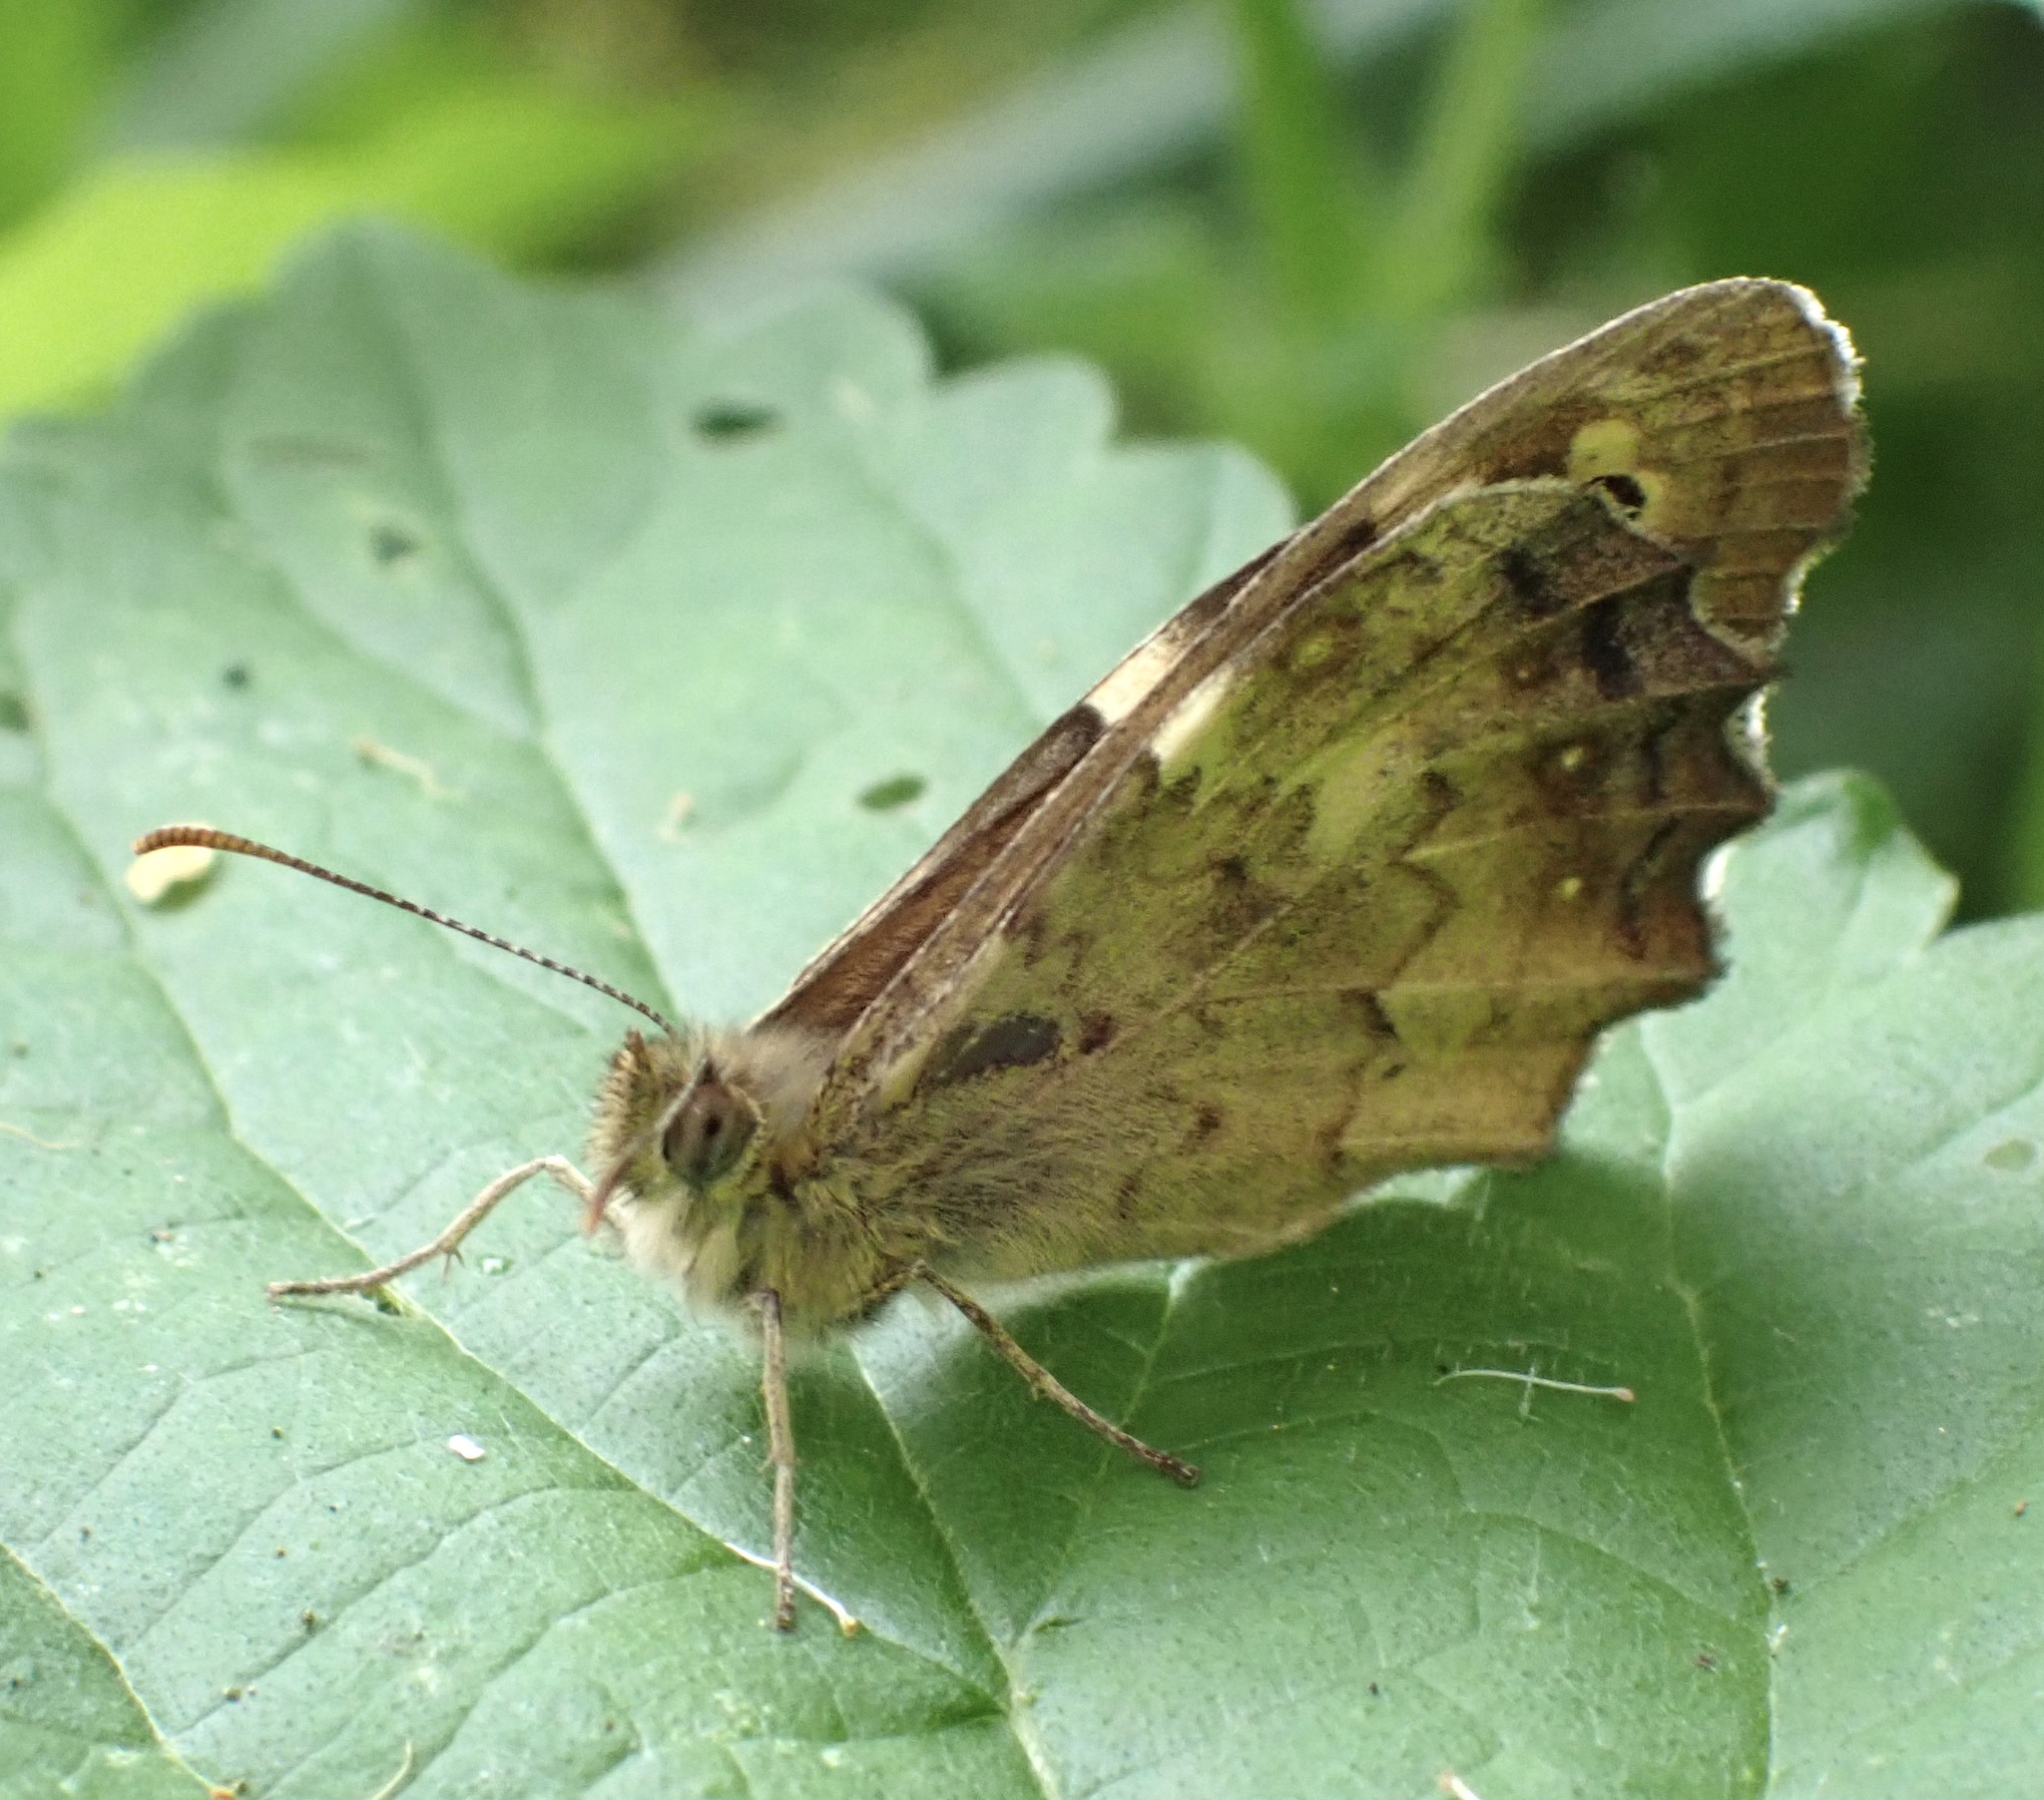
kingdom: Animalia
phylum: Arthropoda
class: Insecta
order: Lepidoptera
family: Nymphalidae
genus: Pararge
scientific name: Pararge aegeria
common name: Speckled wood
